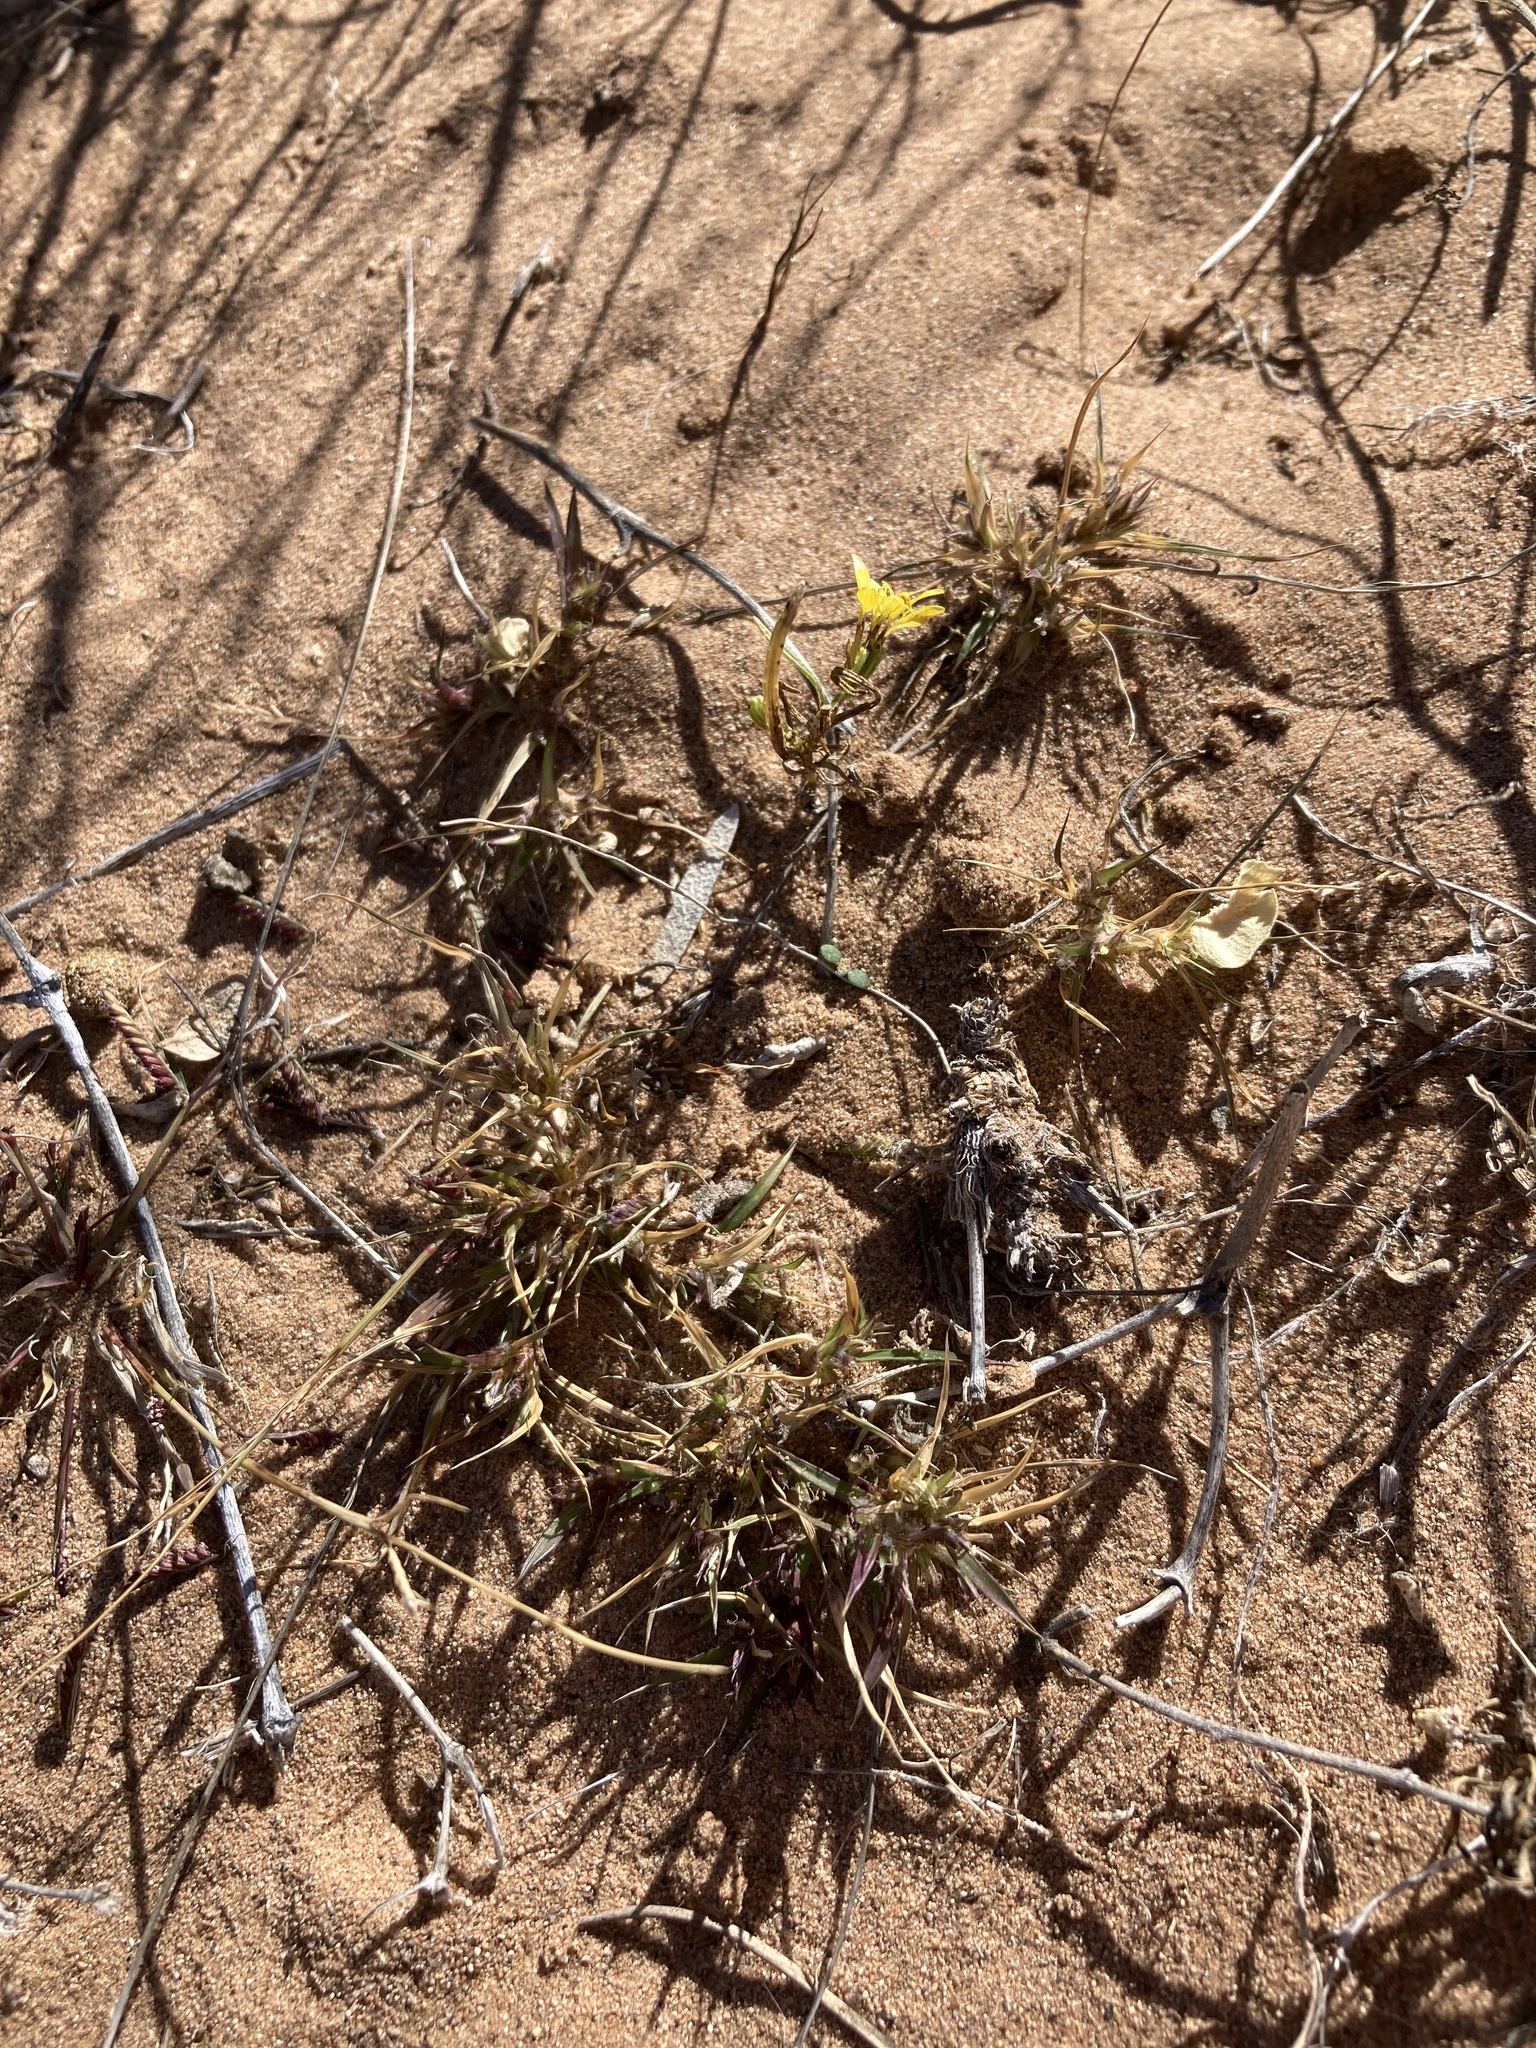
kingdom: Plantae
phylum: Tracheophyta
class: Liliopsida
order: Poales
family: Poaceae
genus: Munroa
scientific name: Munroa squarrosa
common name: False buffalo grass
